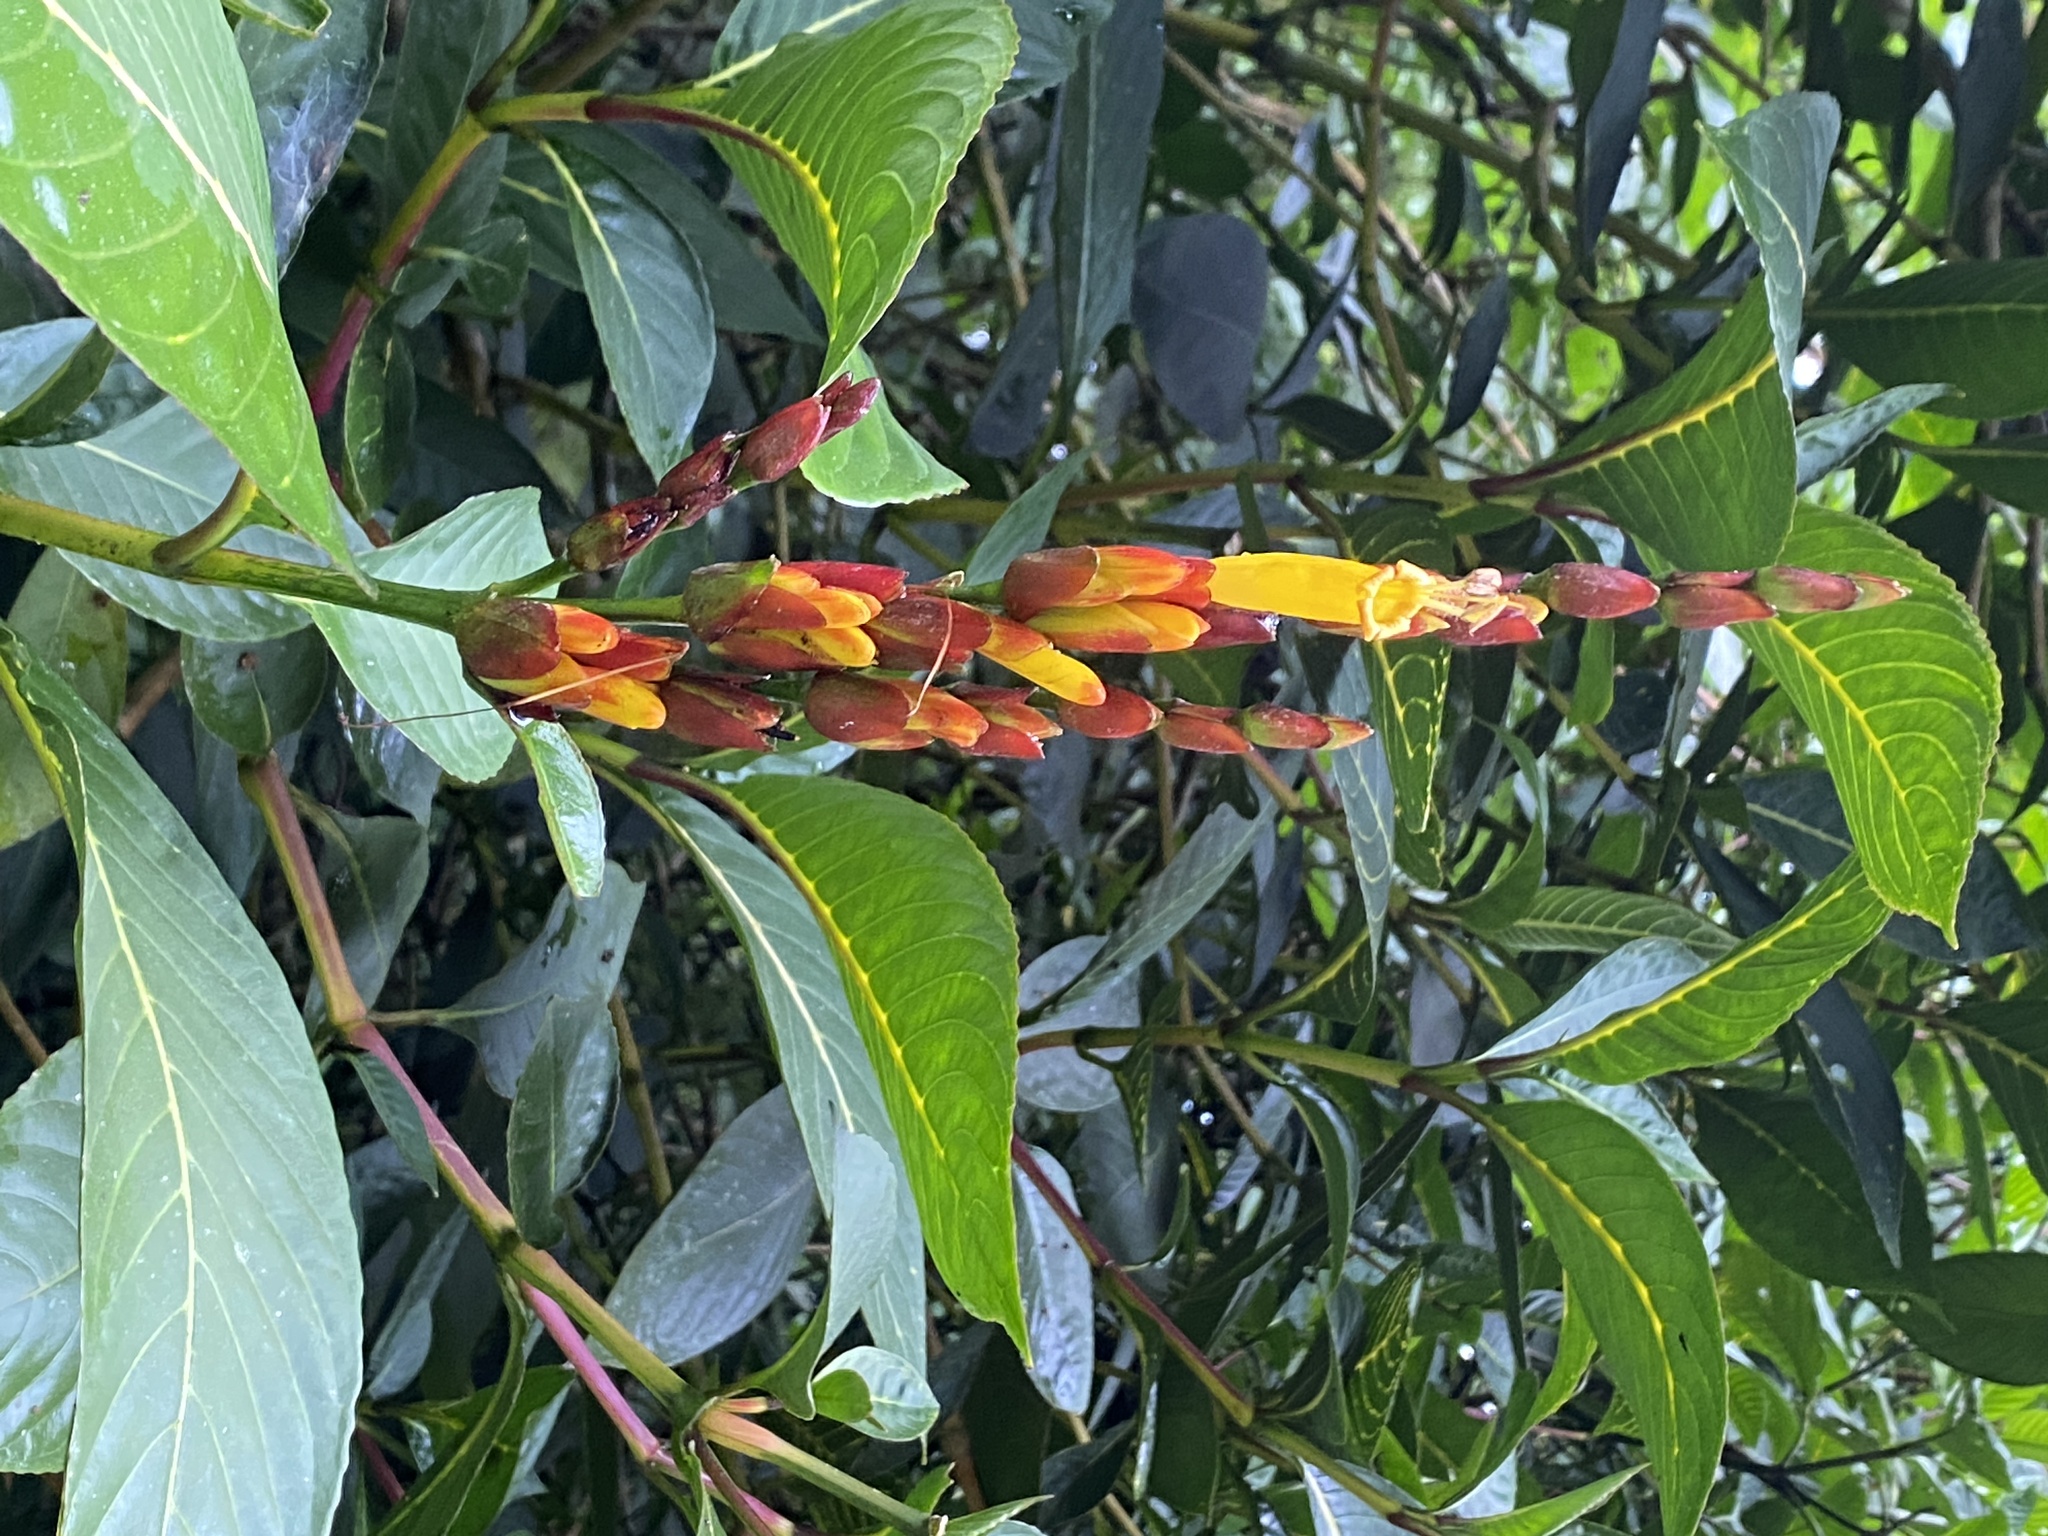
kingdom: Plantae
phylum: Tracheophyta
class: Magnoliopsida
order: Lamiales
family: Acanthaceae
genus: Sanchezia
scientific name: Sanchezia parvibracteata
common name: Sanchezia
